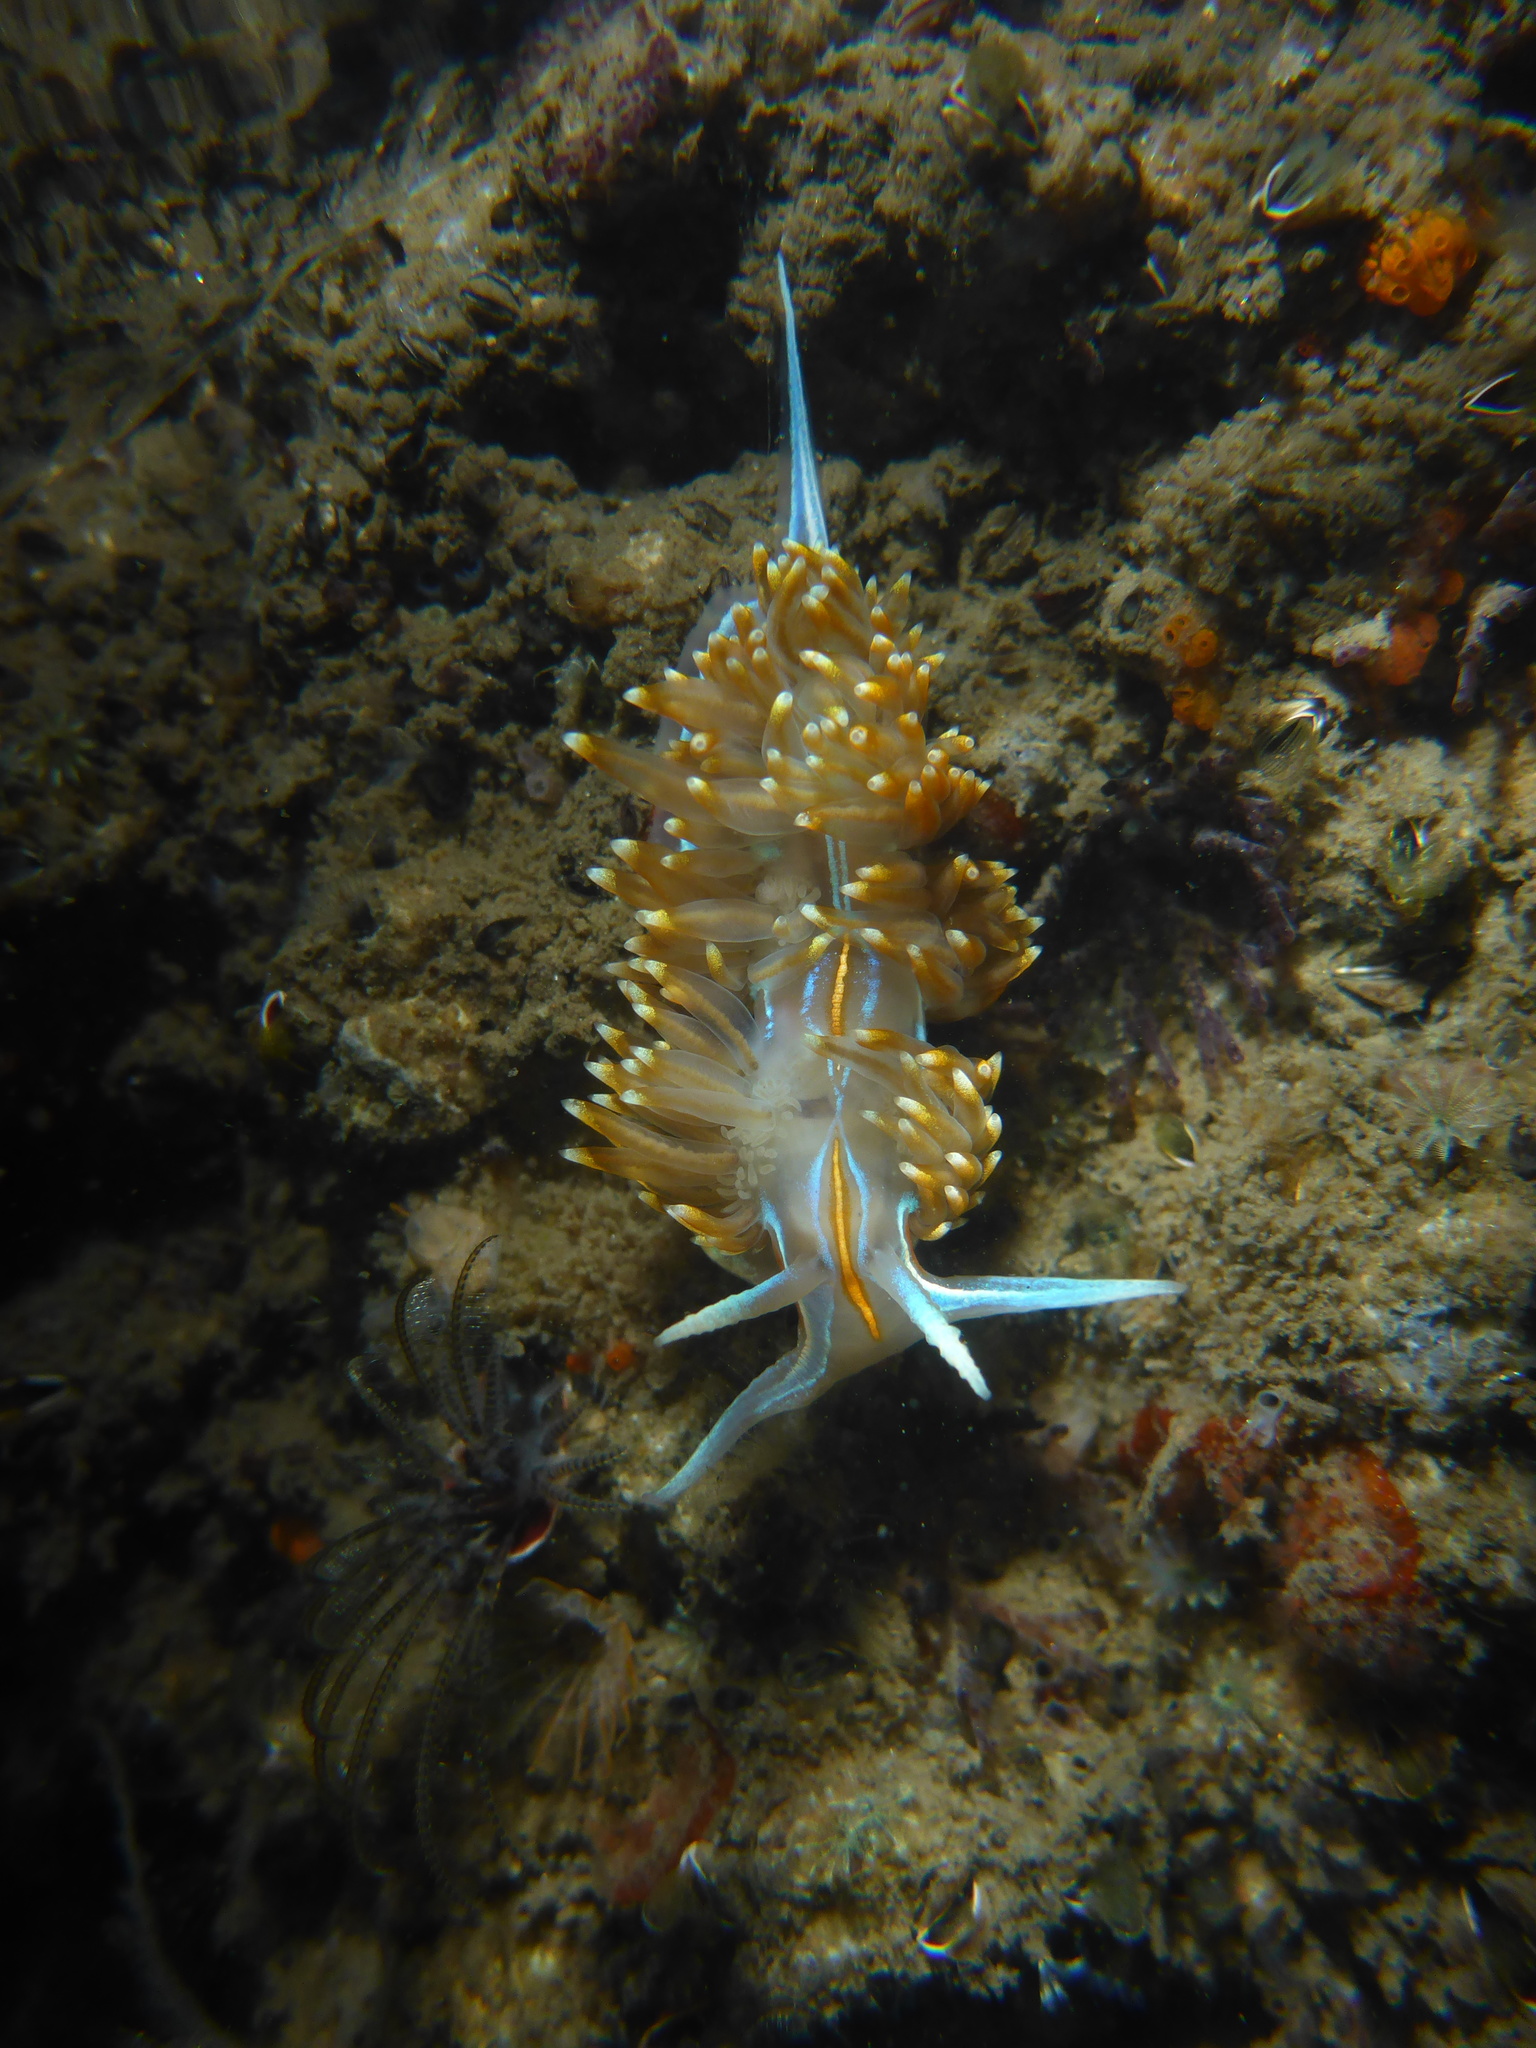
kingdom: Animalia
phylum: Mollusca
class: Gastropoda
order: Nudibranchia
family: Myrrhinidae
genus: Hermissenda
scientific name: Hermissenda opalescens
